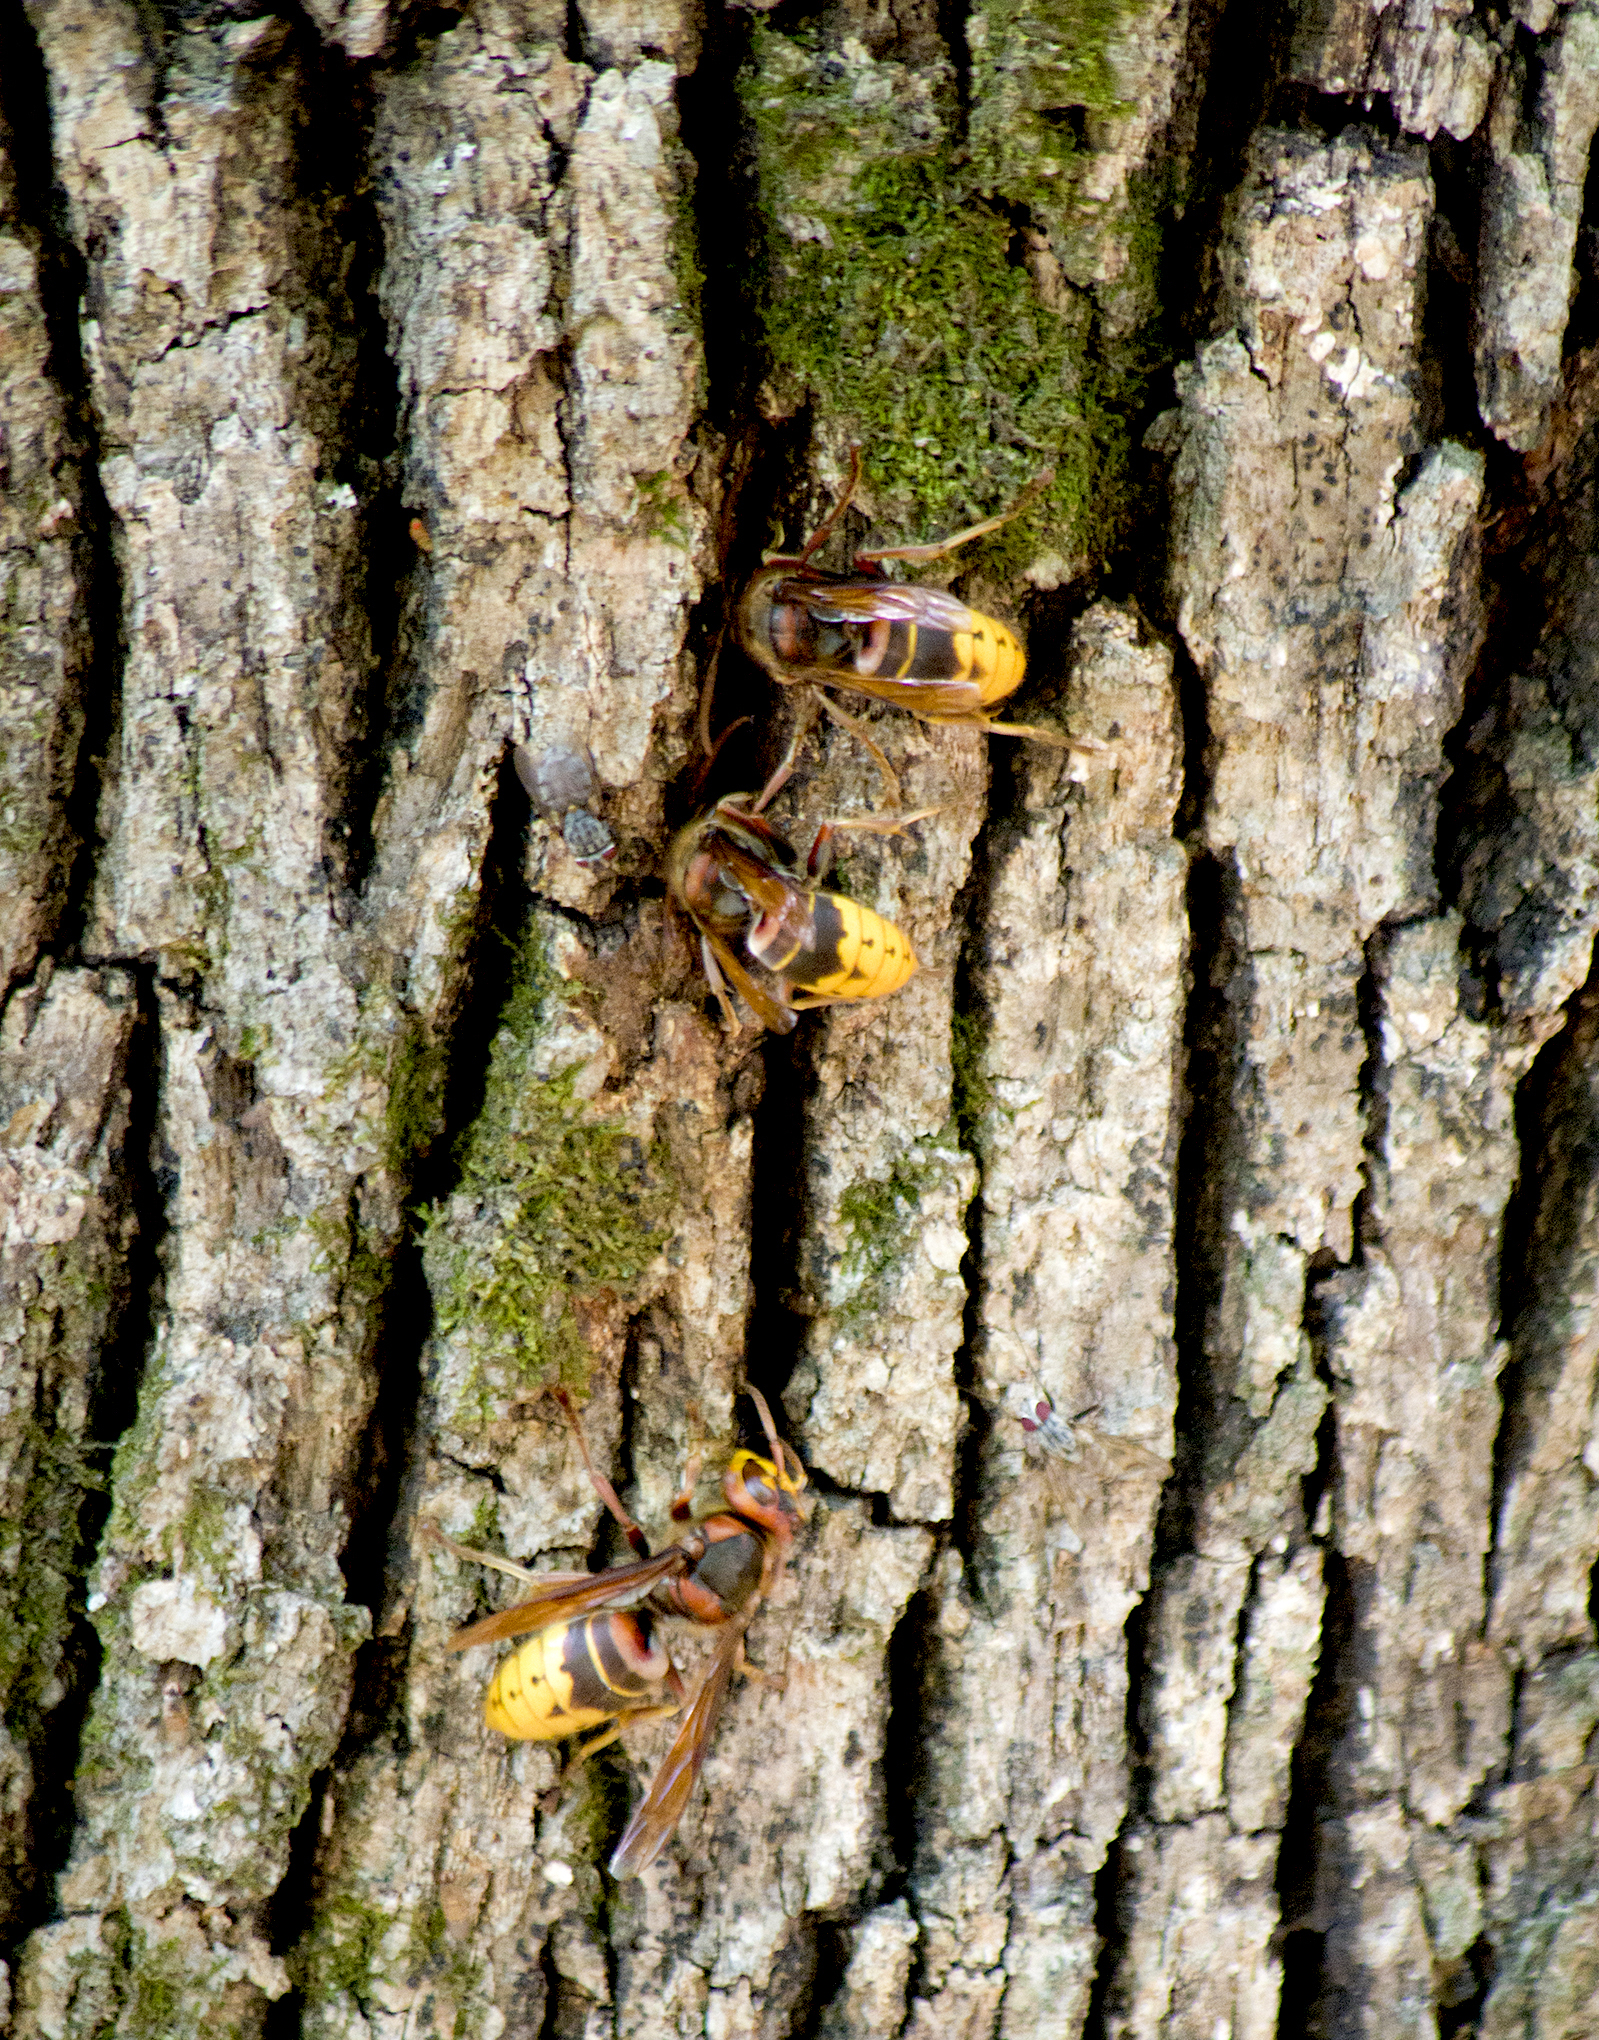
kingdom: Animalia
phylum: Arthropoda
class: Insecta
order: Hymenoptera
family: Vespidae
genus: Vespa
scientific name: Vespa crabro
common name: Hornet
